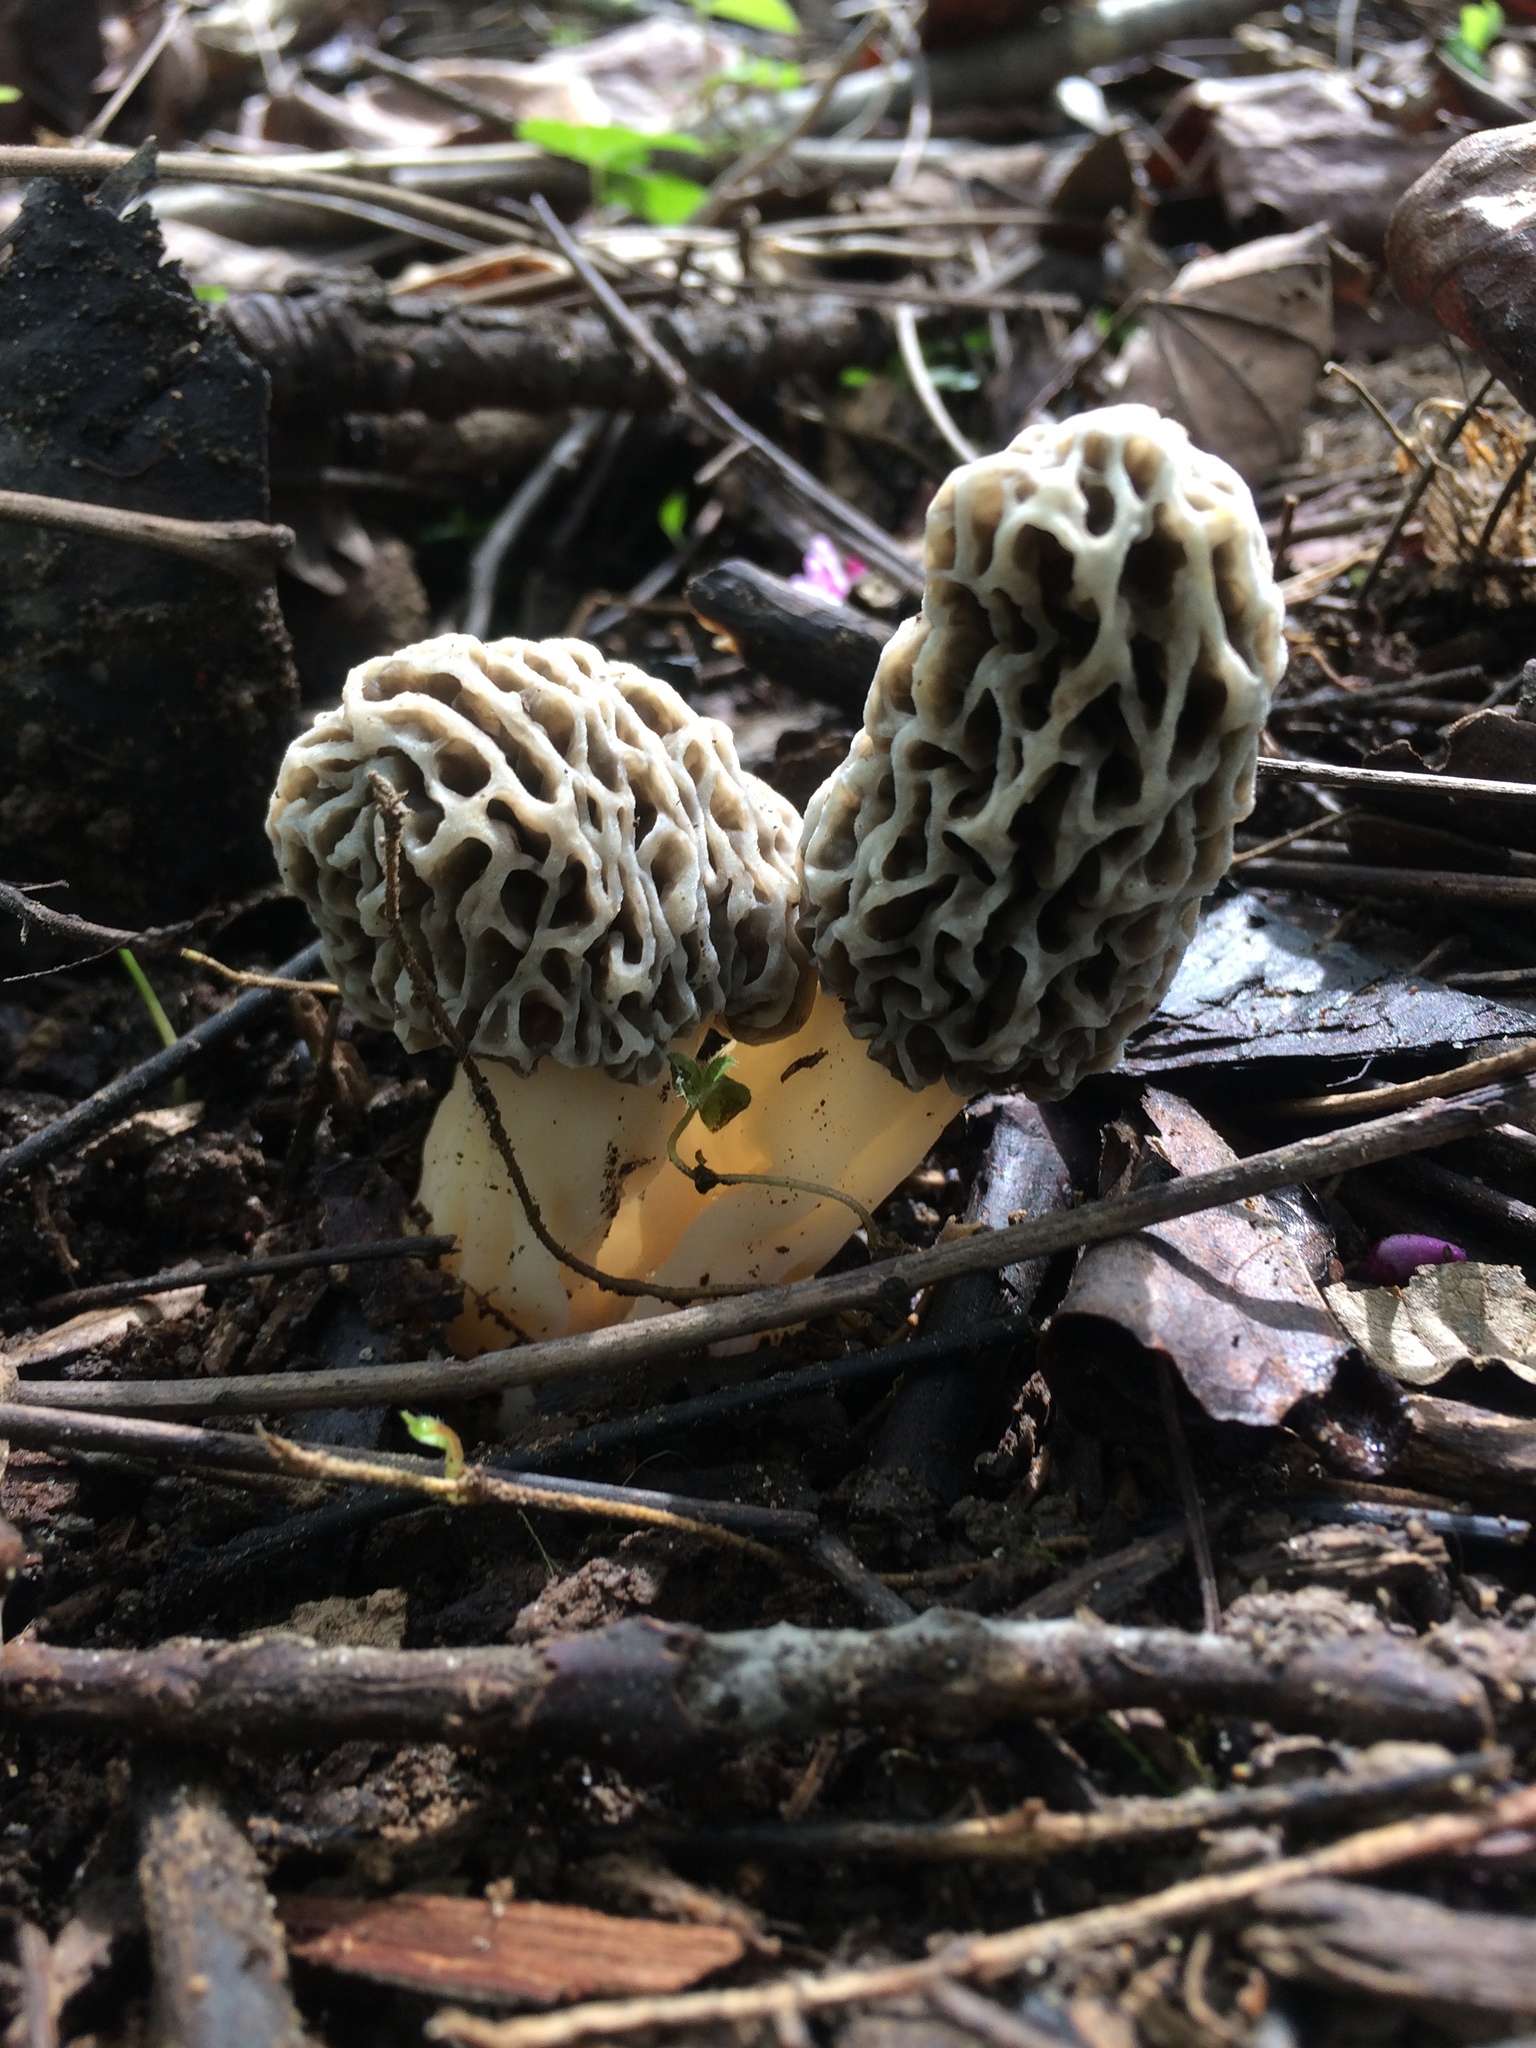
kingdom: Fungi
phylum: Ascomycota
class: Pezizomycetes
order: Pezizales
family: Morchellaceae
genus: Morchella
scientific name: Morchella americana
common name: White morel
